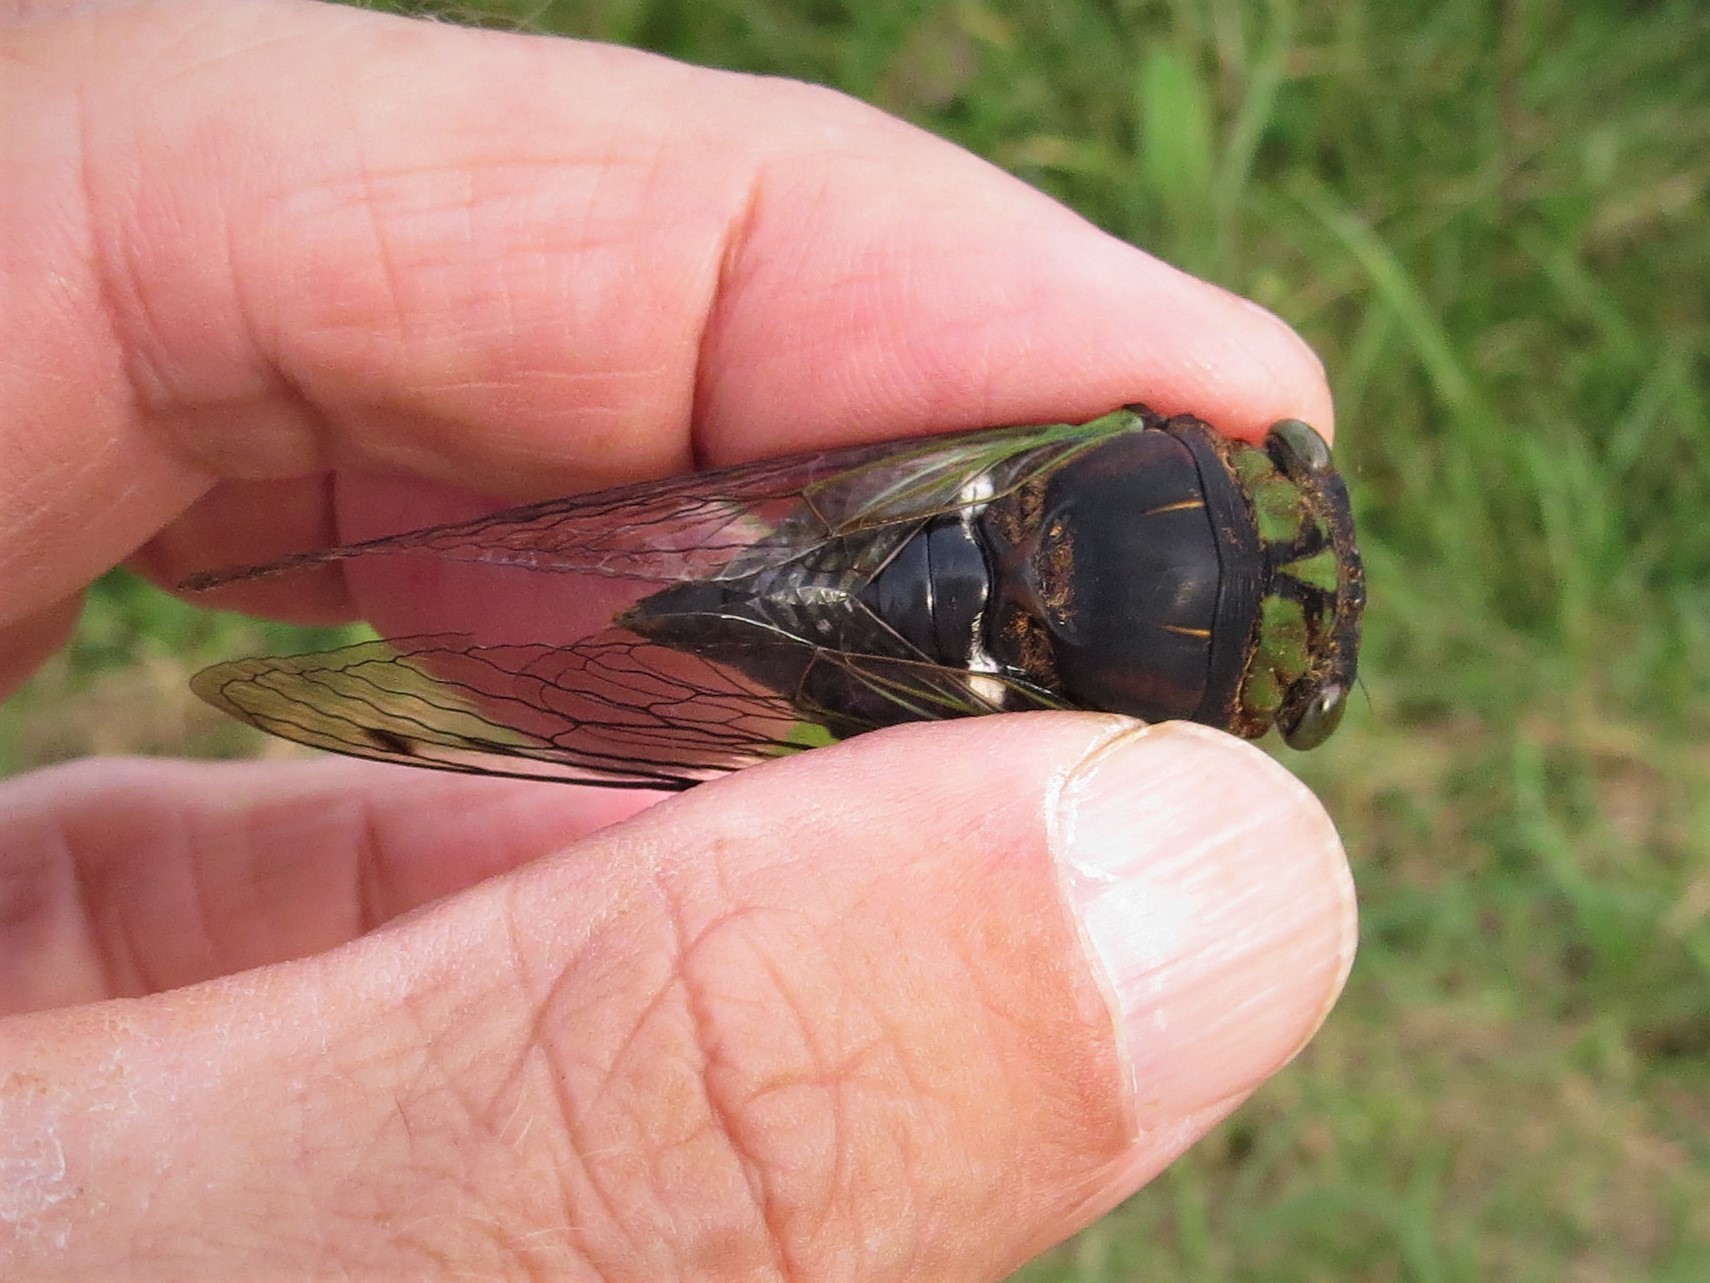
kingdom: Animalia
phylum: Arthropoda
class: Insecta
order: Hemiptera
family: Cicadidae
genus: Neotibicen
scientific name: Neotibicen tibicen
